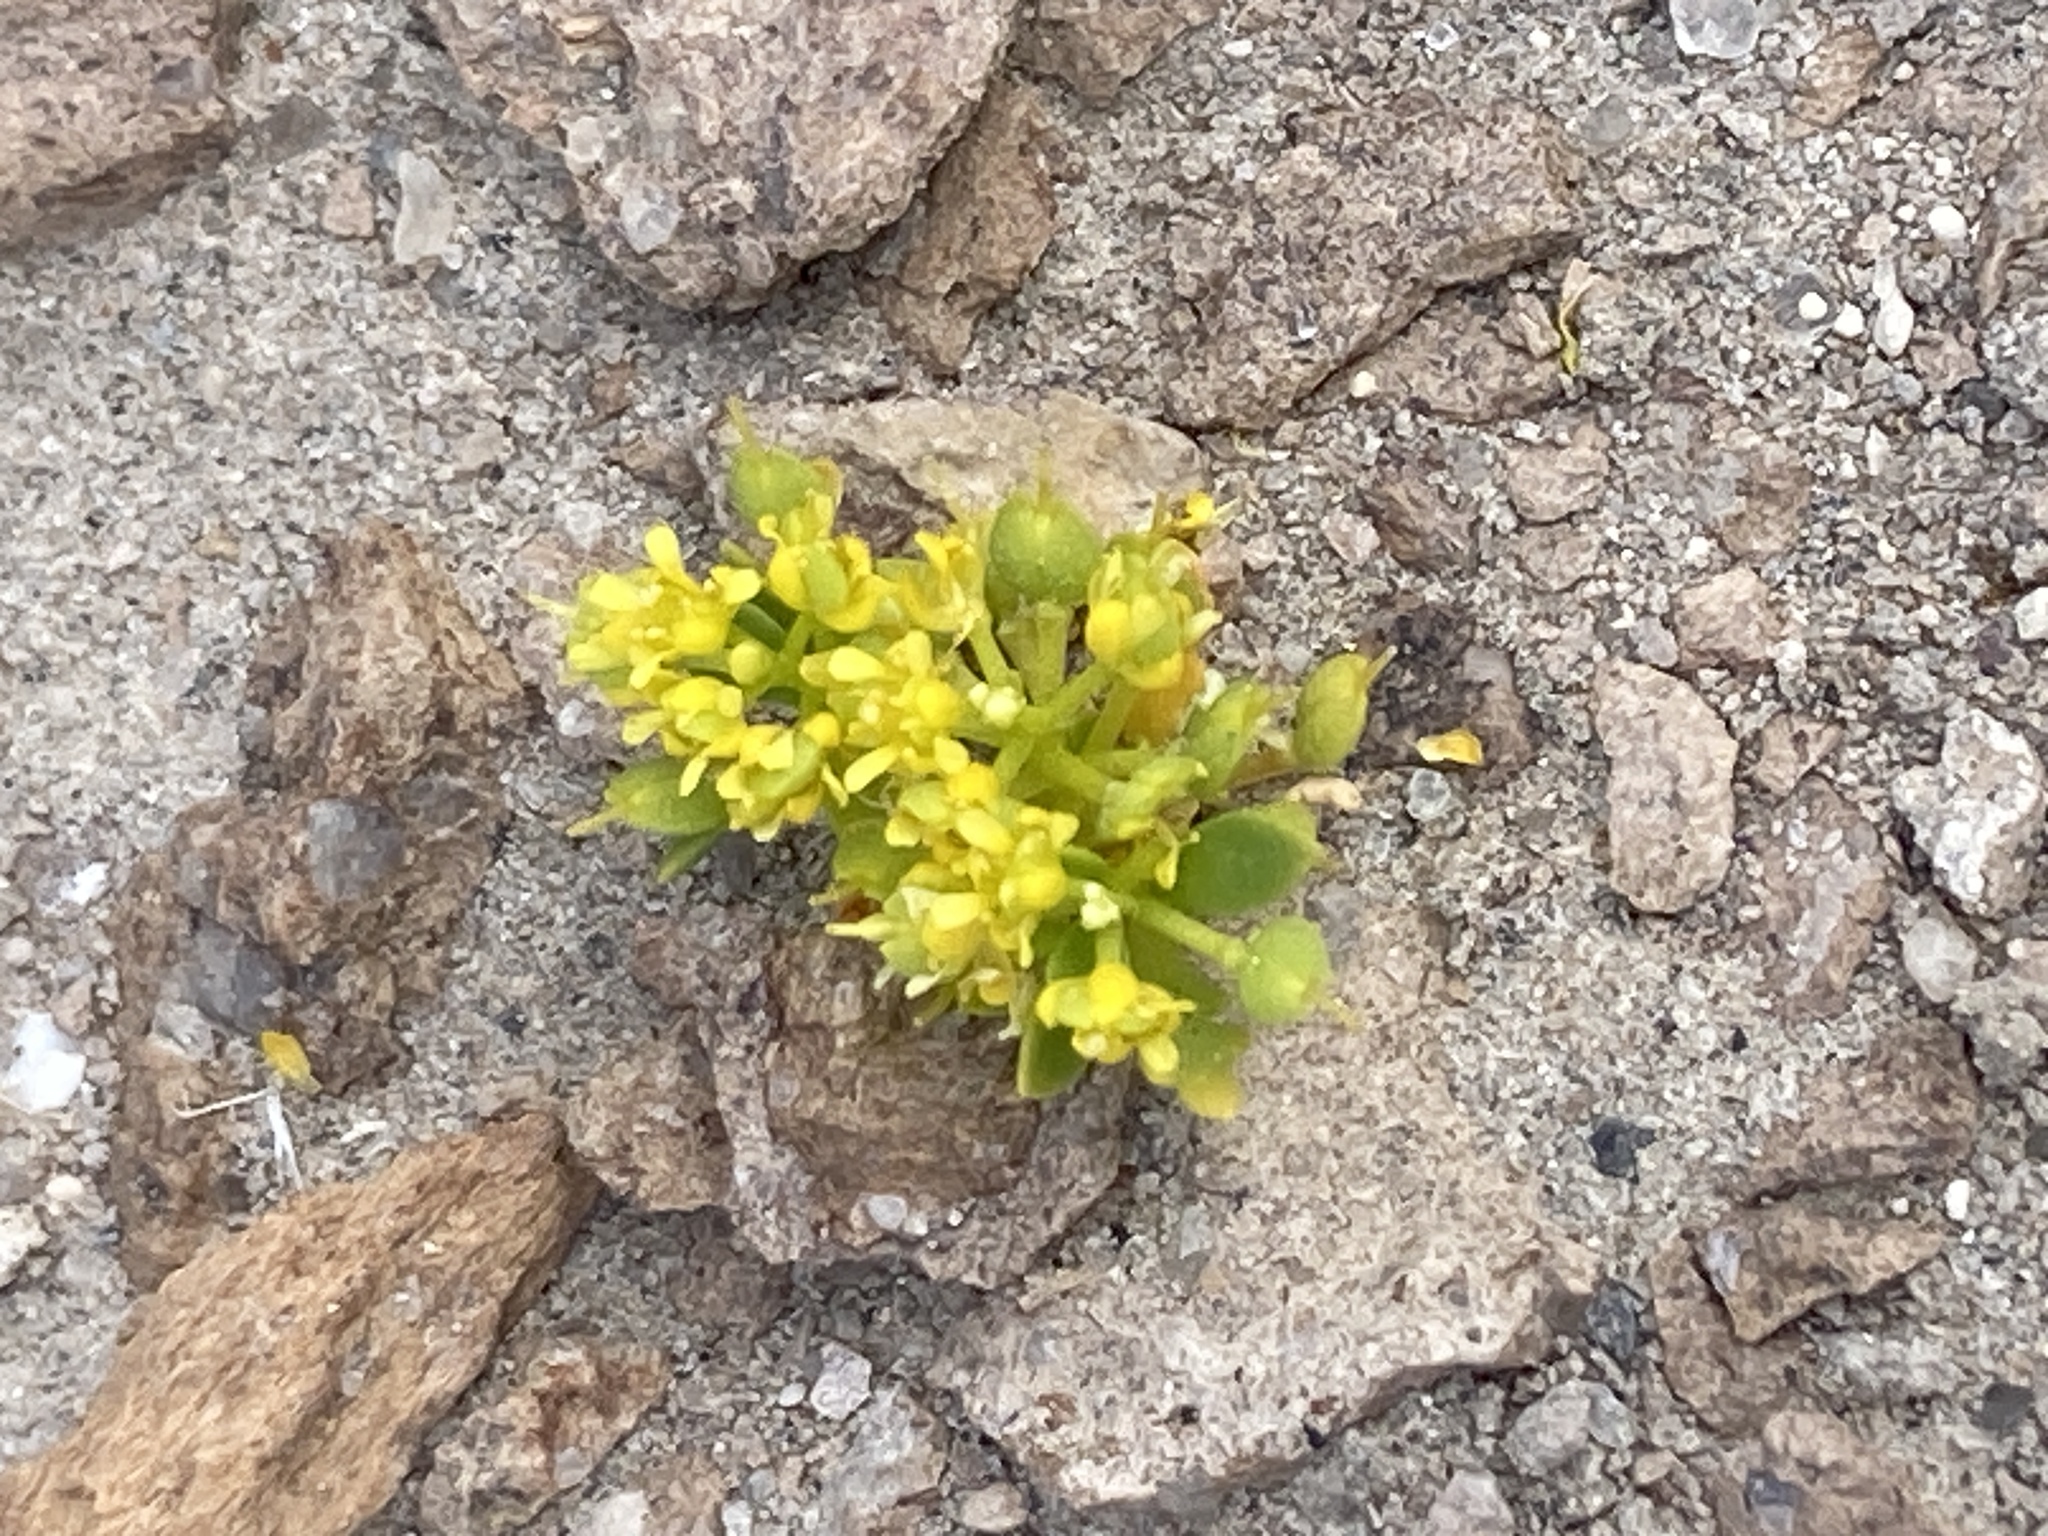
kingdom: Plantae
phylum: Tracheophyta
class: Magnoliopsida
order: Brassicales
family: Brassicaceae
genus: Lepidium
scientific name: Lepidium flavum
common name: Yellow pepperwort
